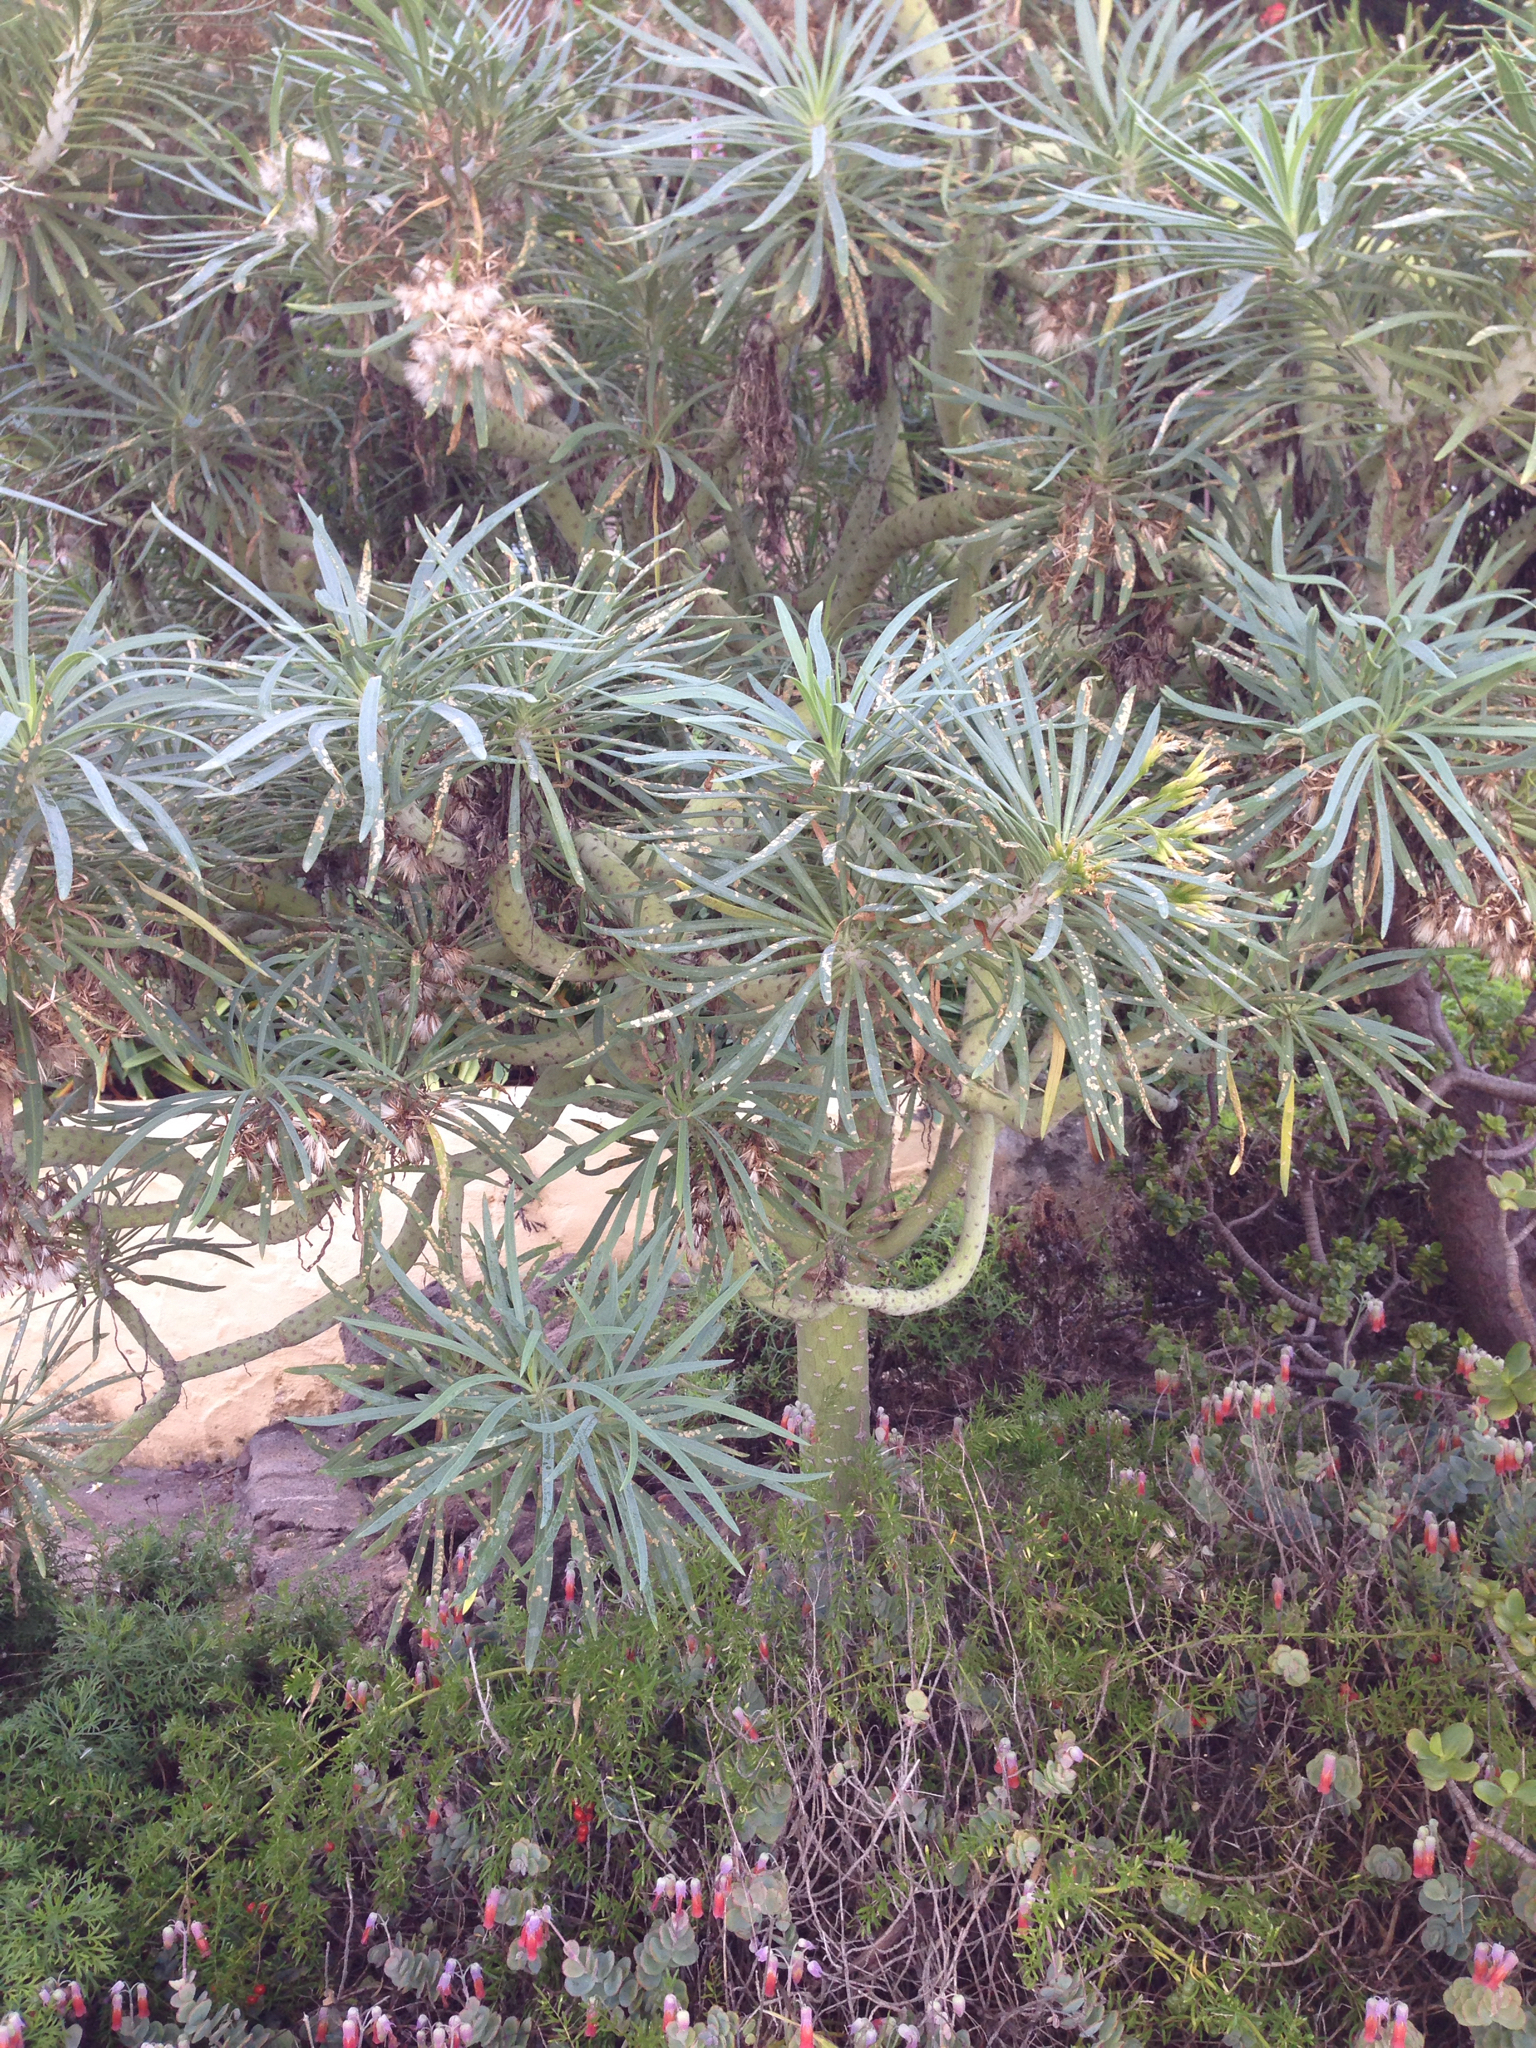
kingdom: Plantae
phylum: Tracheophyta
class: Magnoliopsida
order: Asterales
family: Asteraceae
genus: Kleinia
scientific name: Kleinia neriifolia
